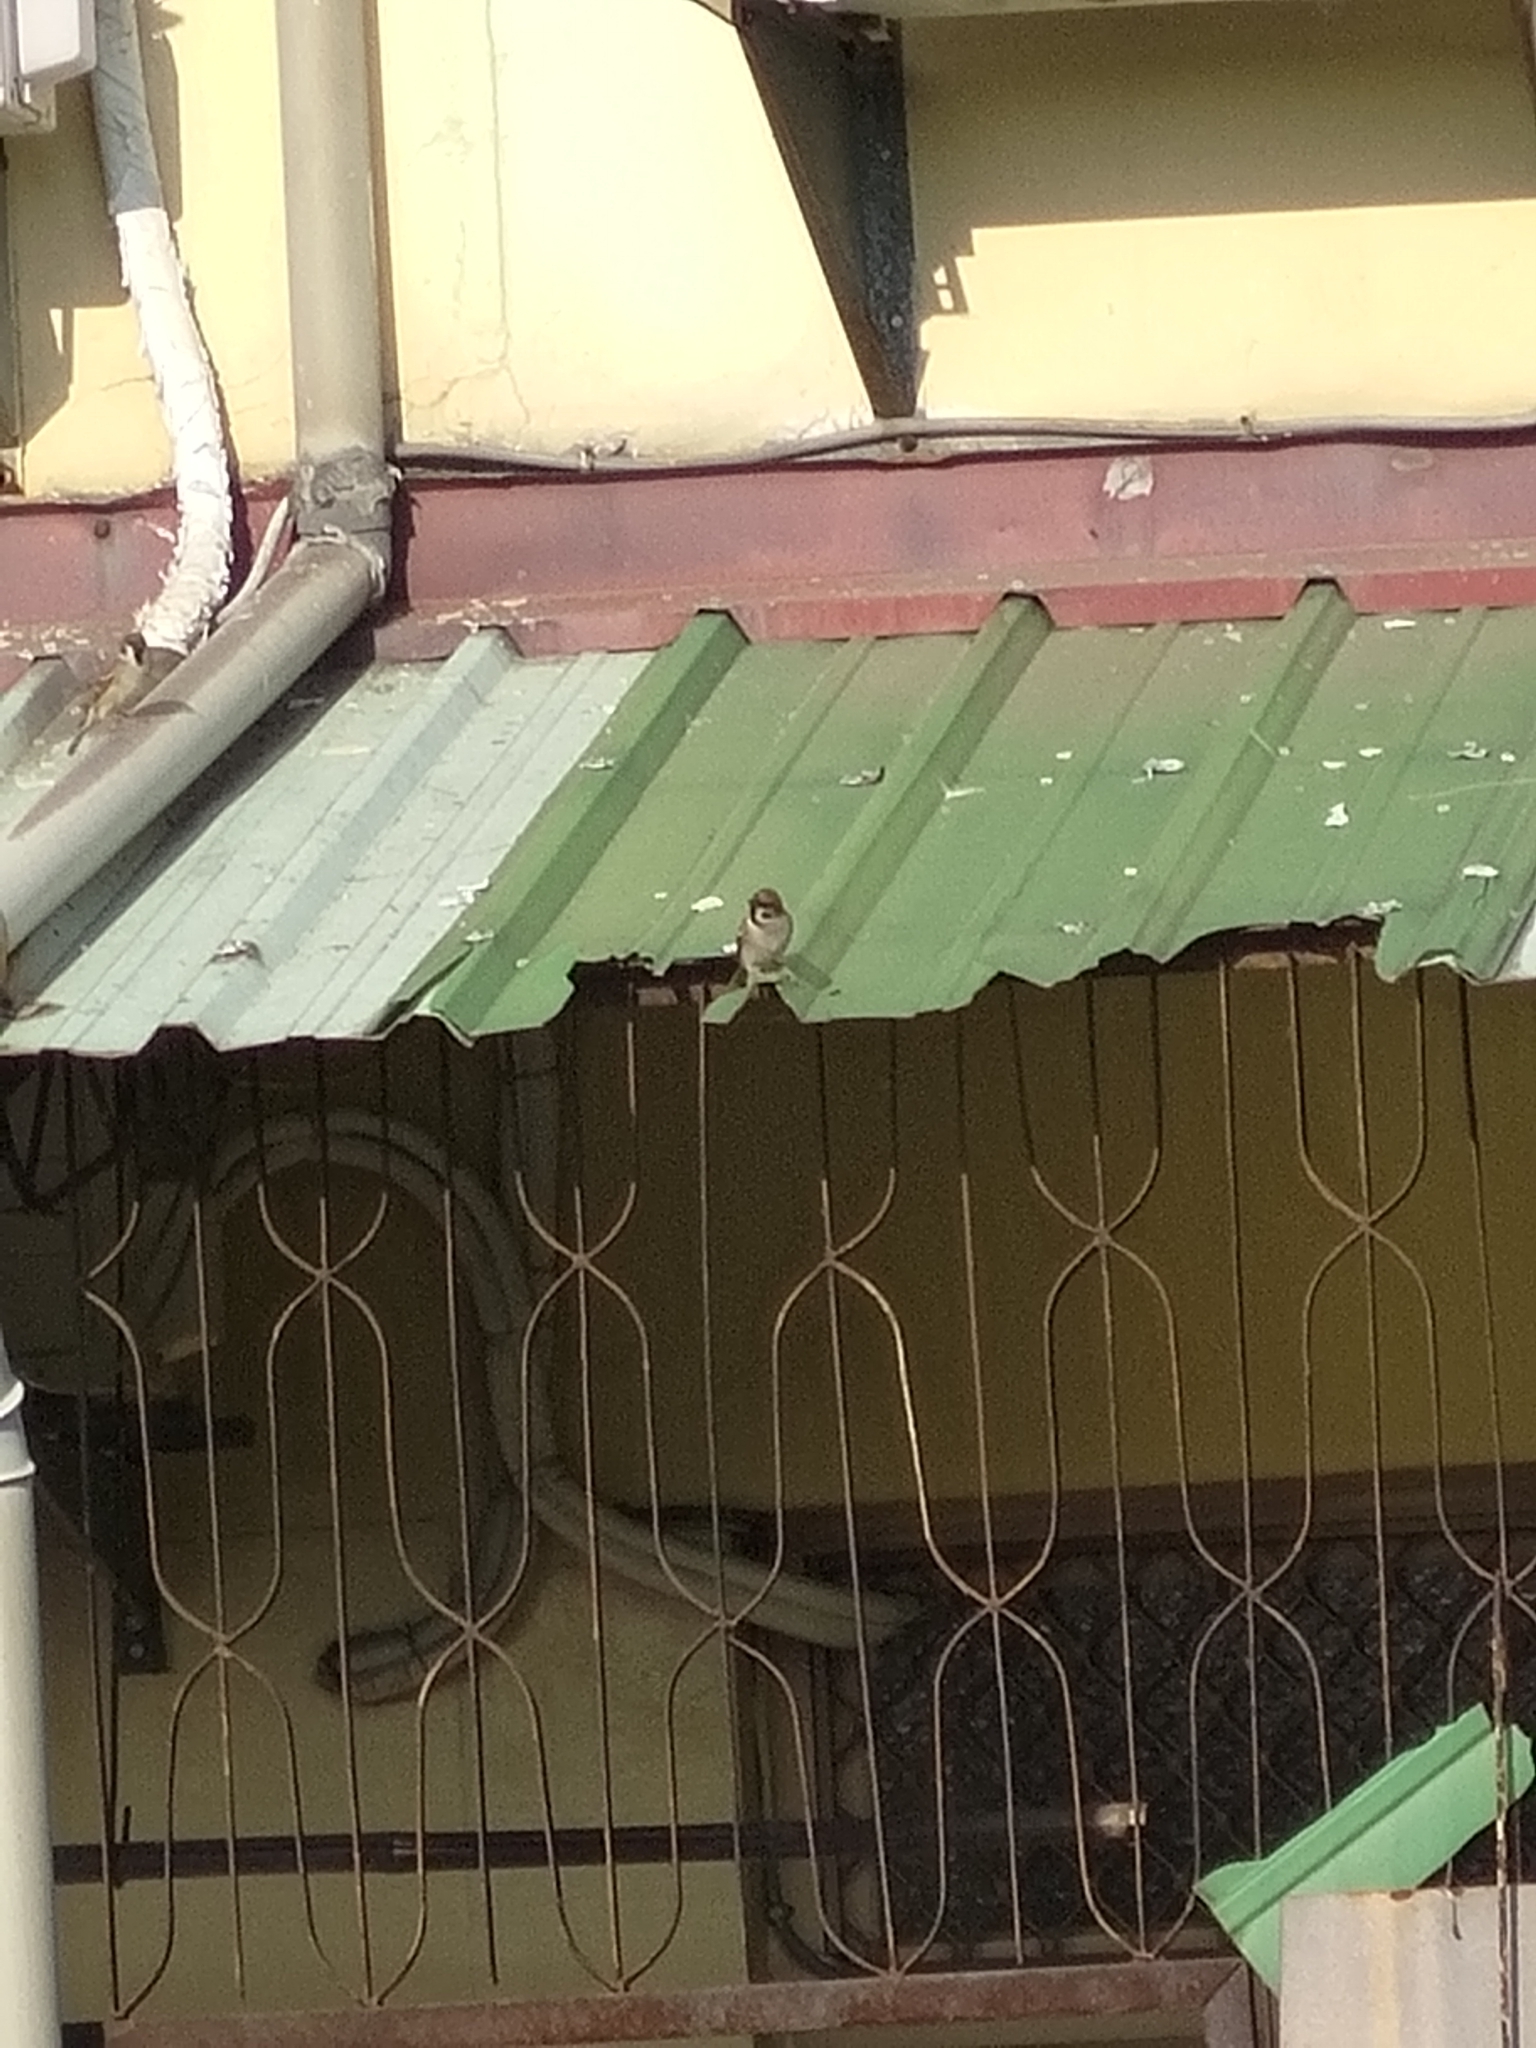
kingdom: Animalia
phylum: Chordata
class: Aves
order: Passeriformes
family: Passeridae
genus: Passer
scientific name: Passer montanus
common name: Eurasian tree sparrow
